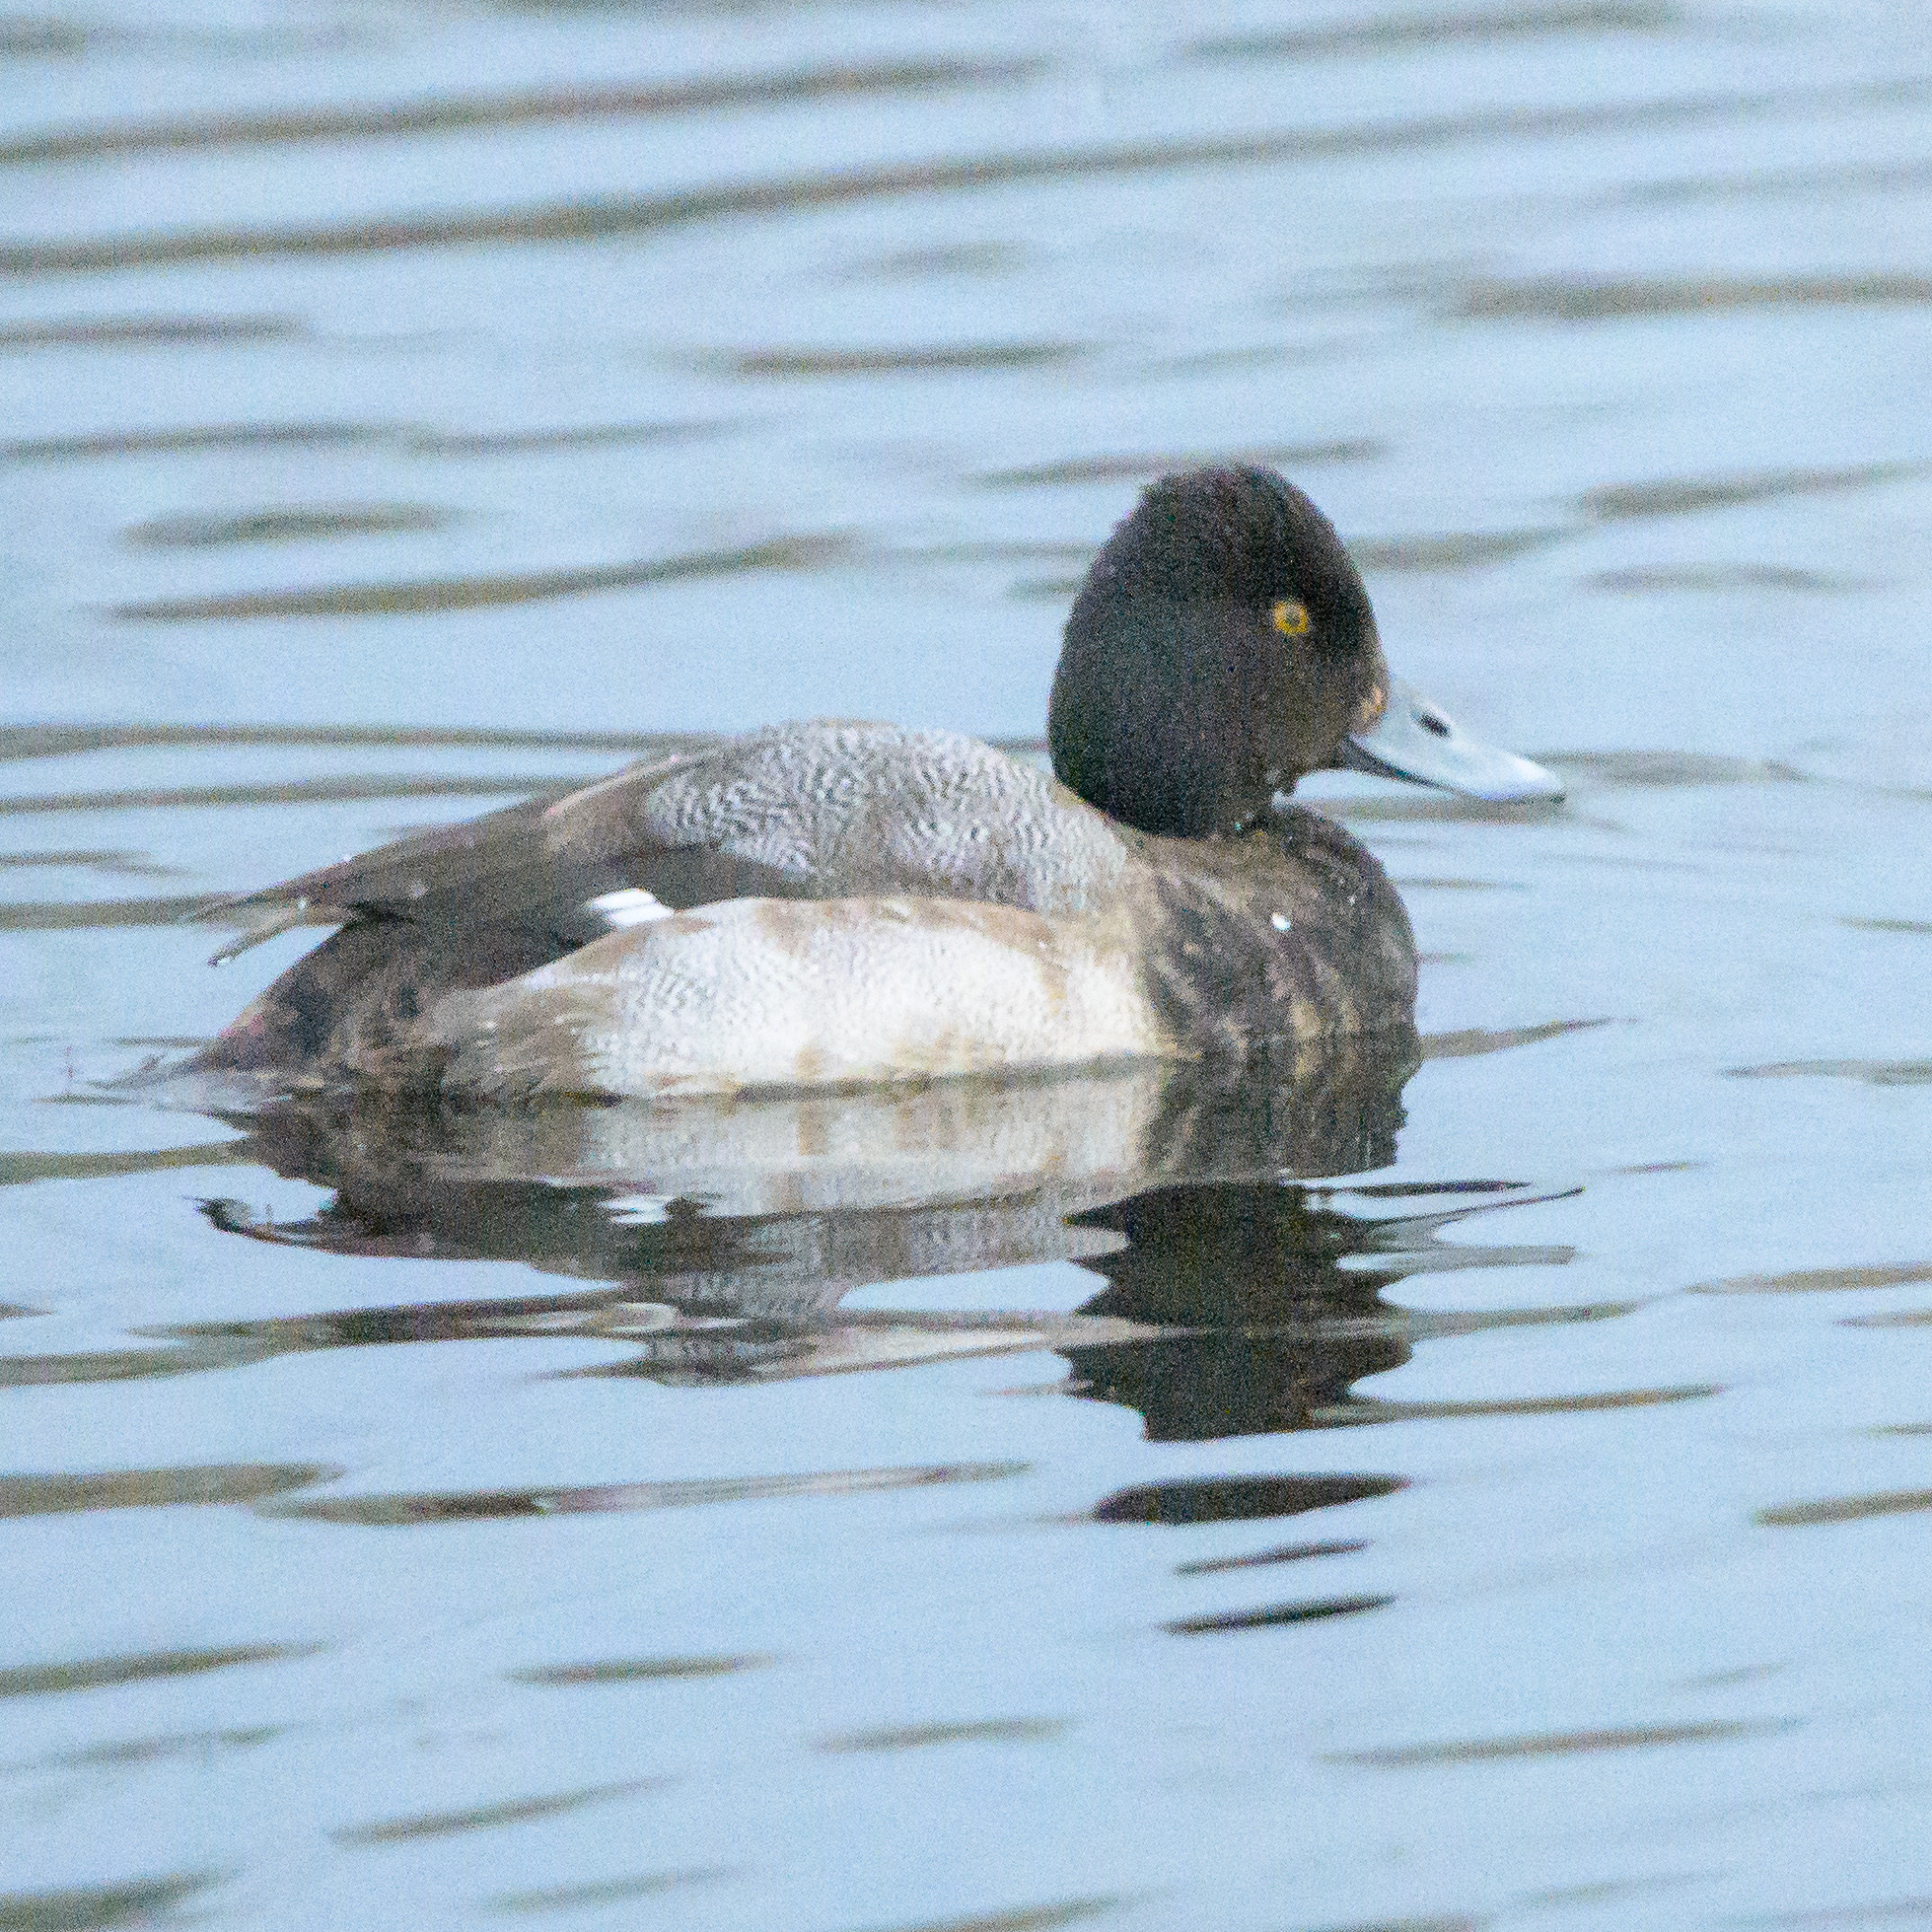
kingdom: Animalia
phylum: Chordata
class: Aves
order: Anseriformes
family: Anatidae
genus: Aythya
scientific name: Aythya affinis
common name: Lesser scaup
